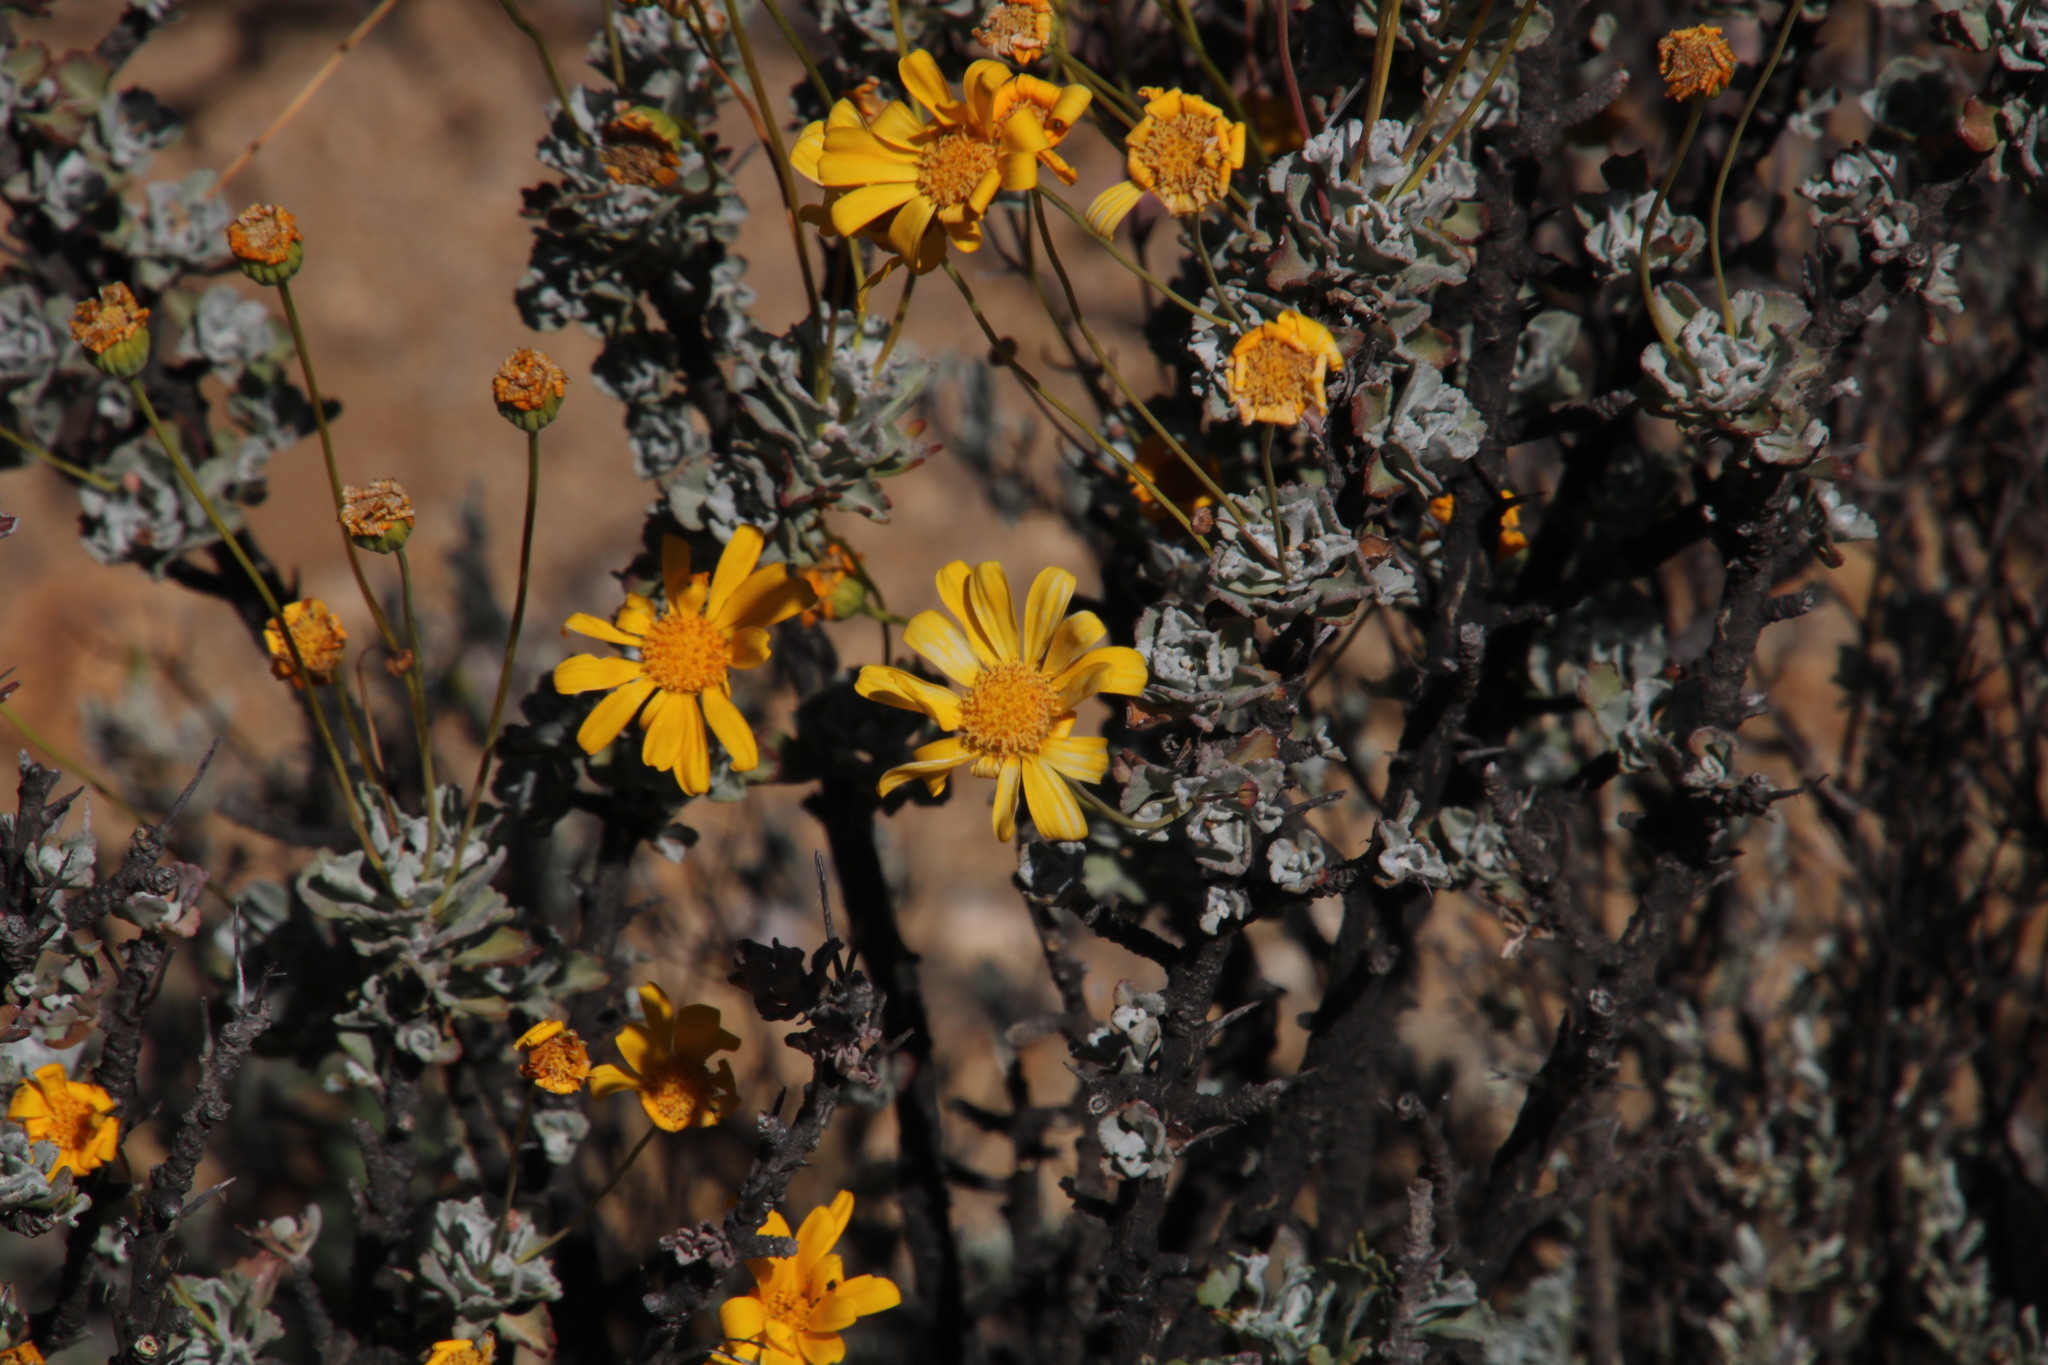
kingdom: Plantae
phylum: Tracheophyta
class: Magnoliopsida
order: Asterales
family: Asteraceae
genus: Euryops
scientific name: Euryops dregeanus
